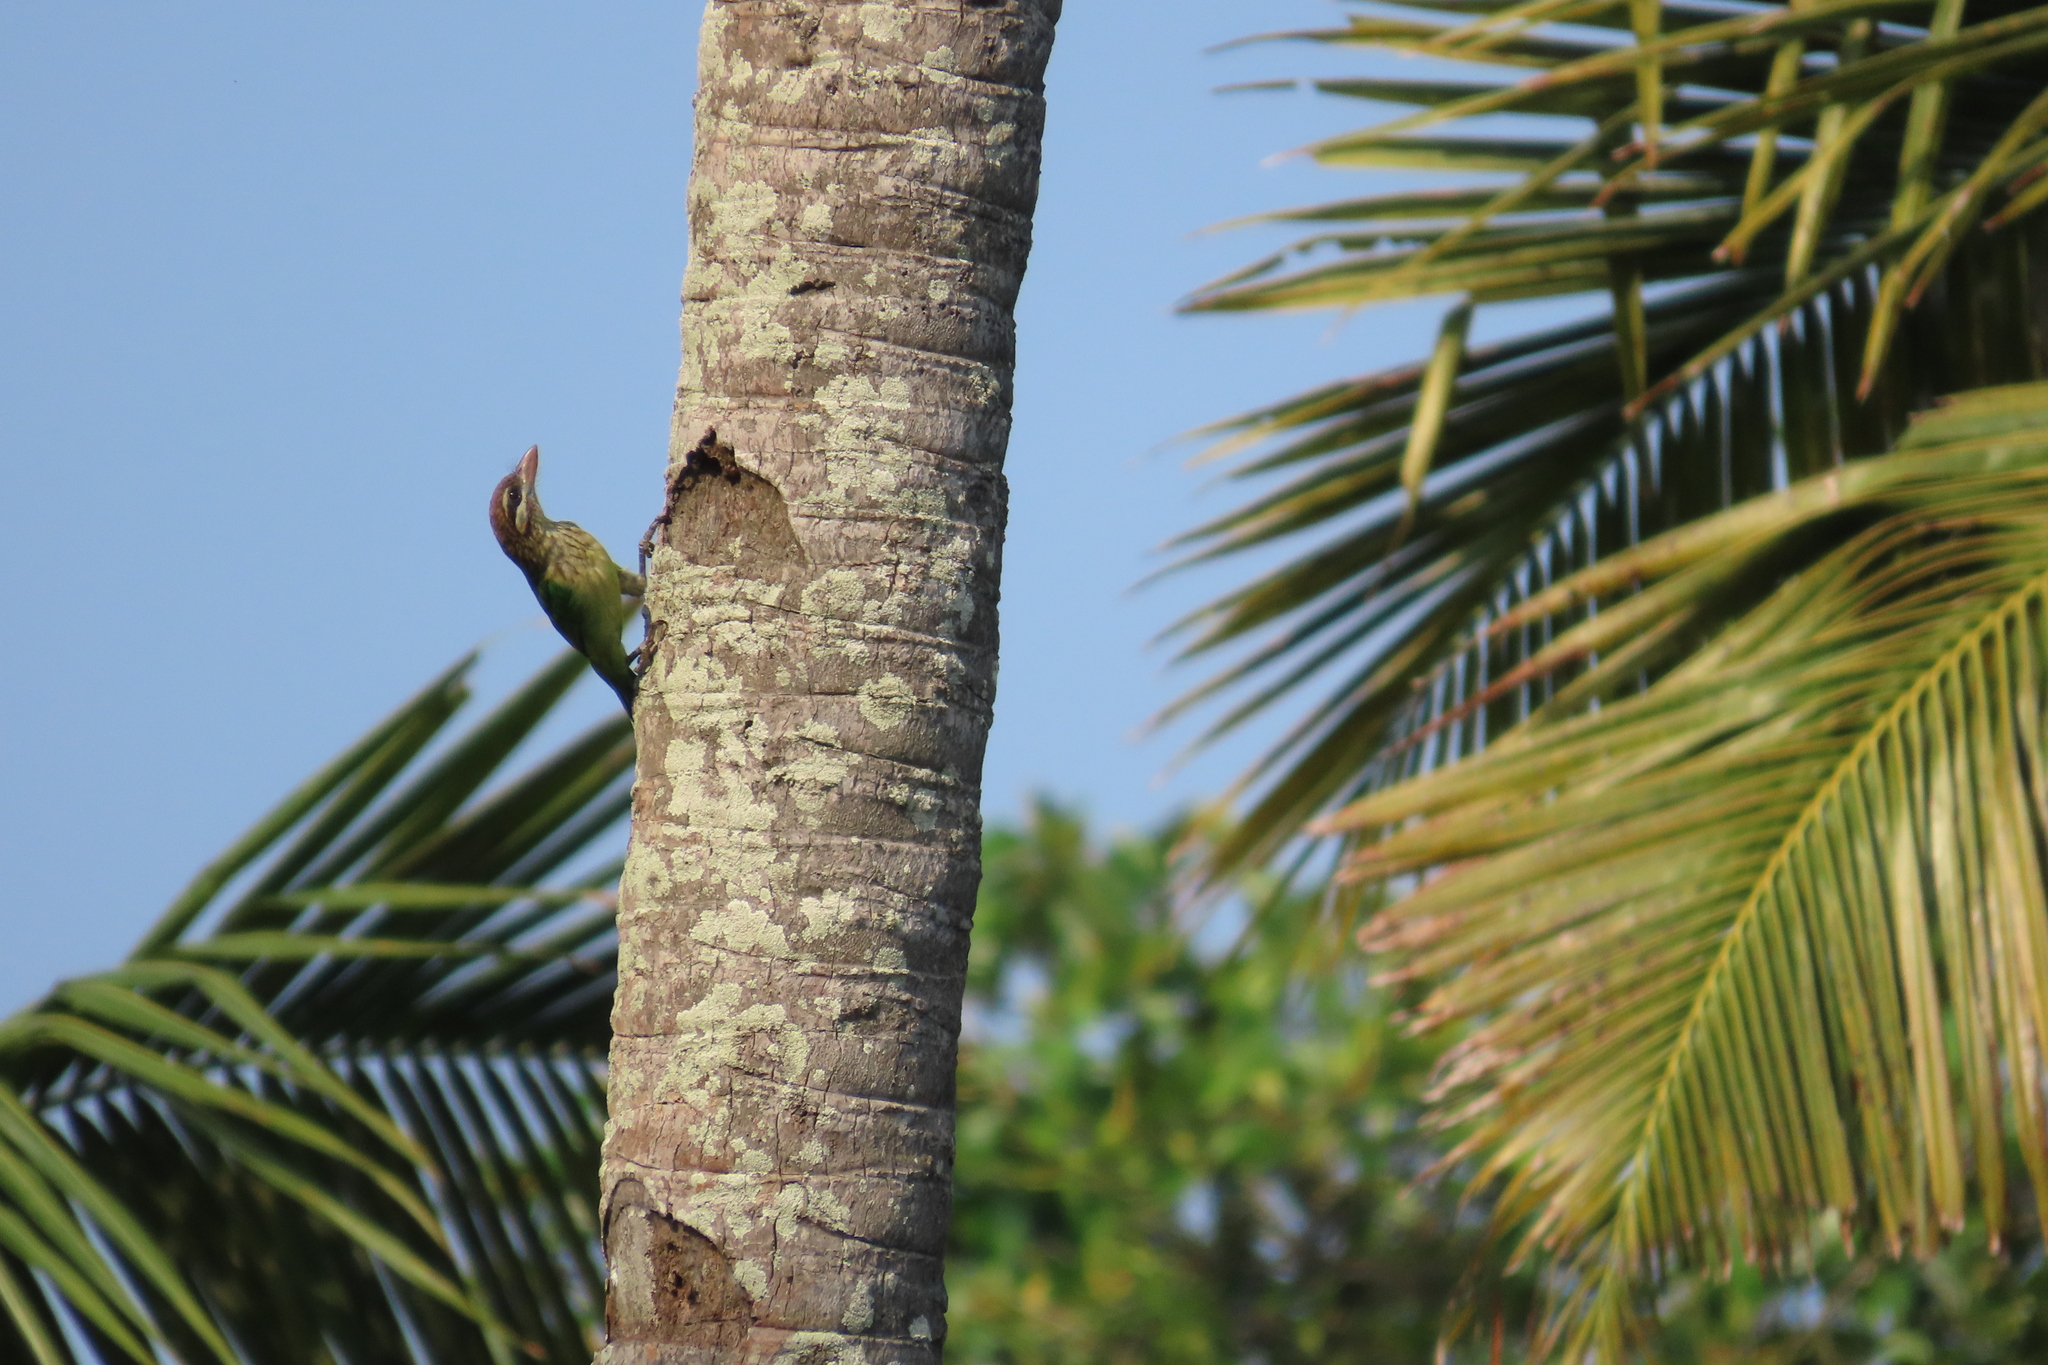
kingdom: Animalia
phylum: Chordata
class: Aves
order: Piciformes
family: Megalaimidae
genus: Psilopogon
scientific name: Psilopogon viridis
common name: White-cheeked barbet
